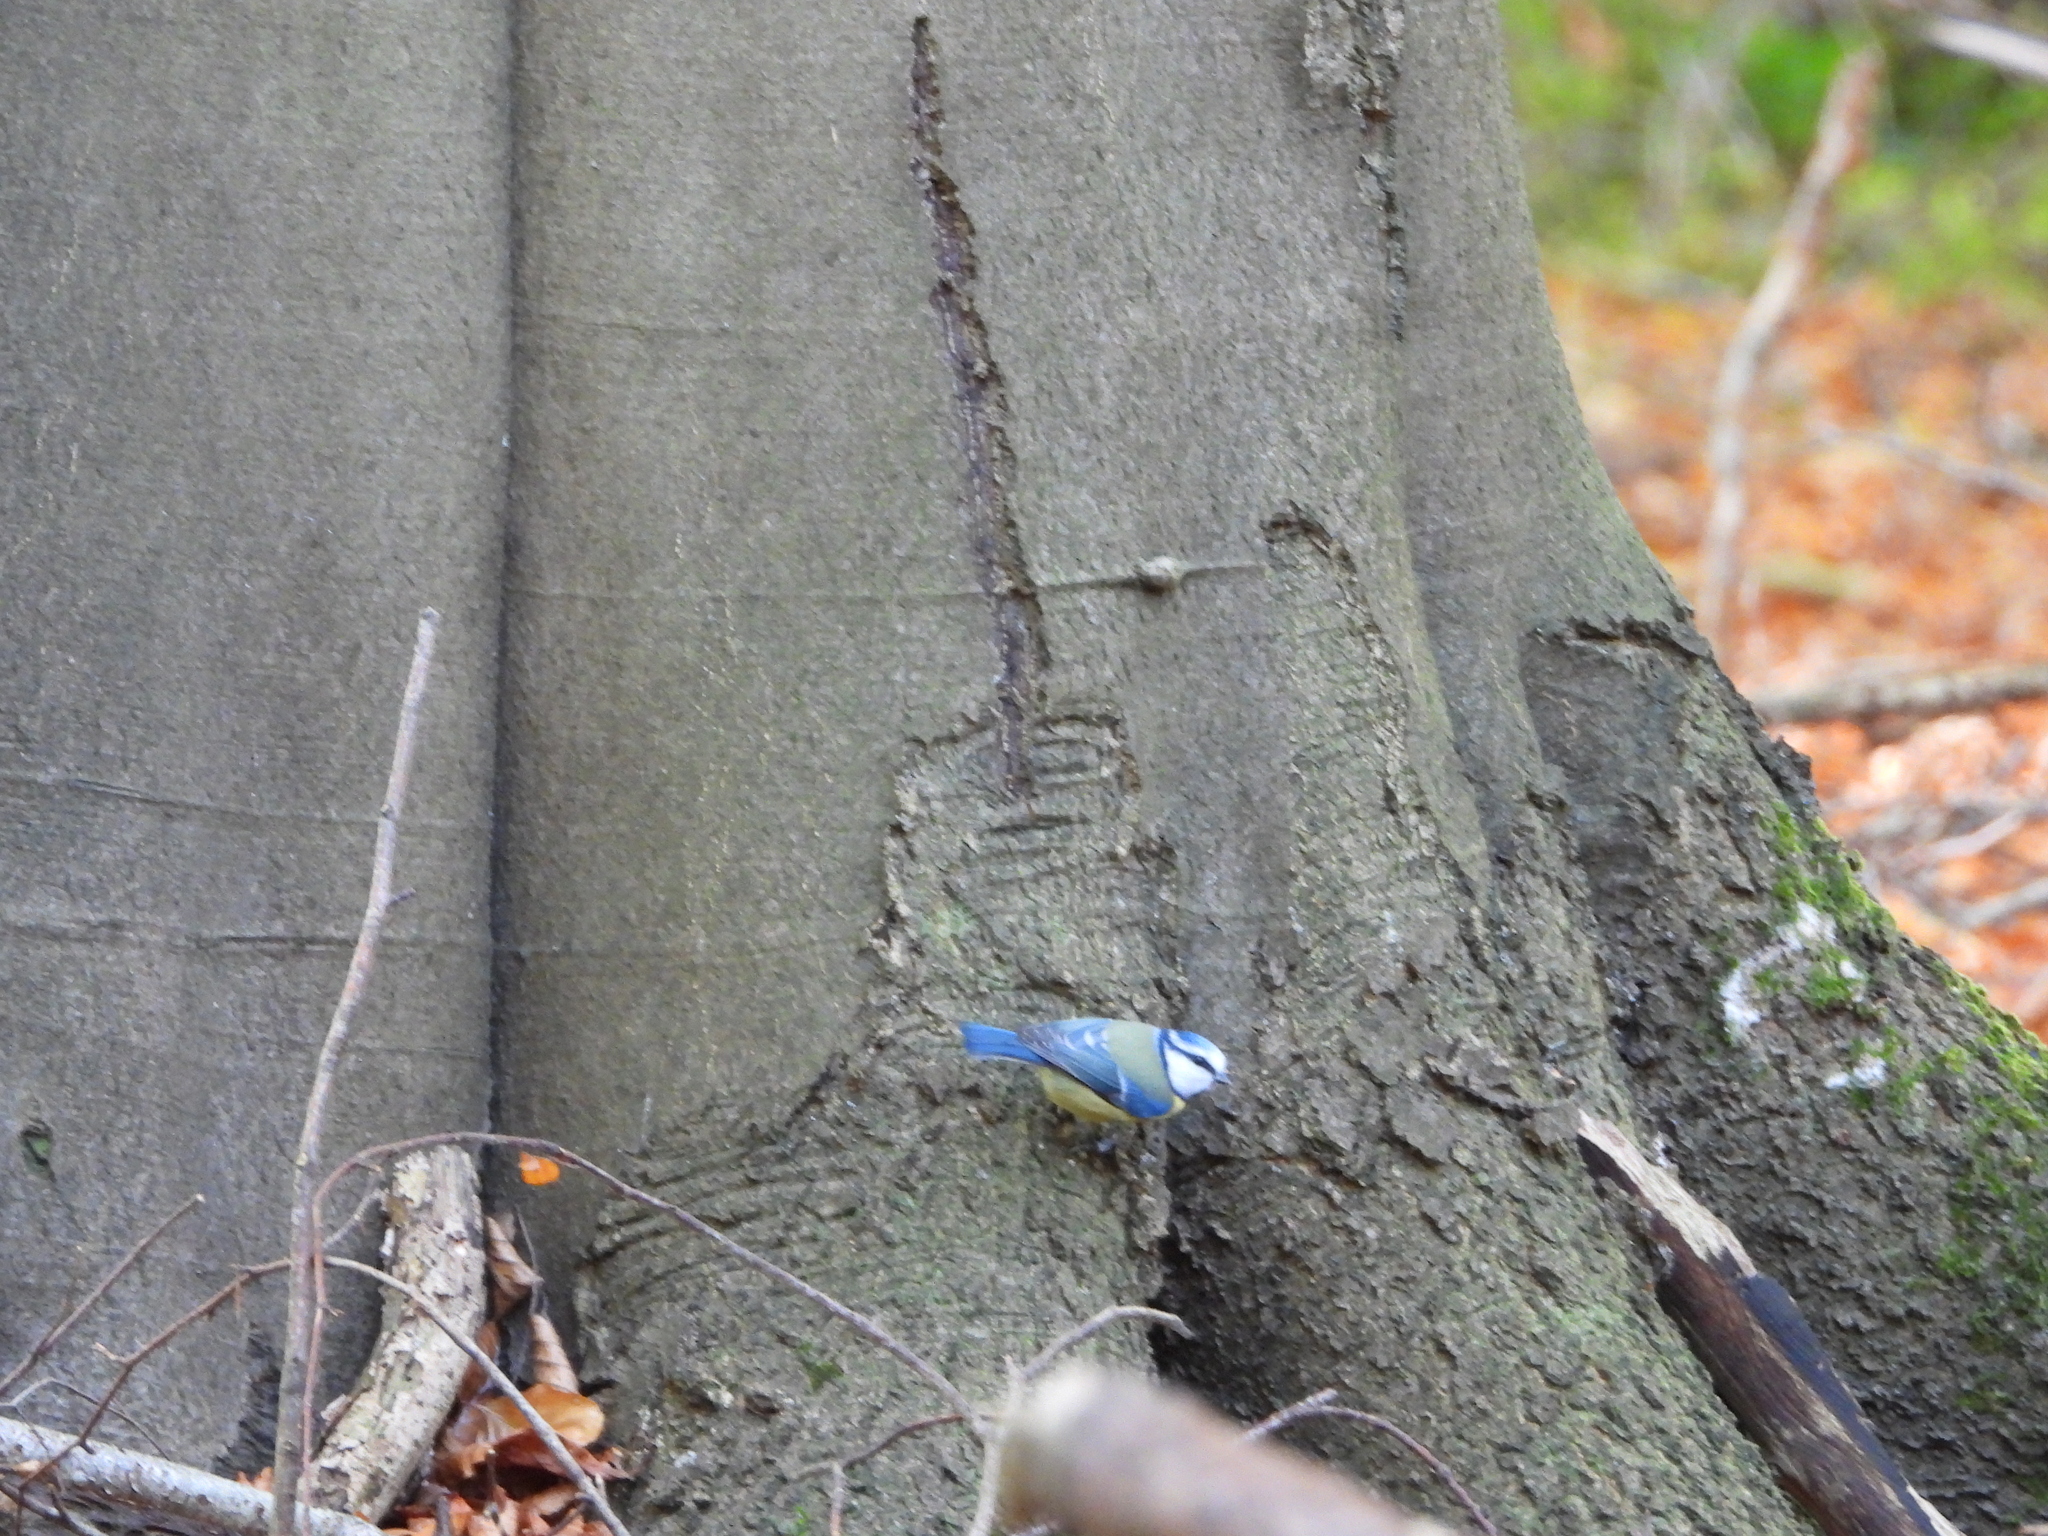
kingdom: Animalia
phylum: Chordata
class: Aves
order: Passeriformes
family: Paridae
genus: Cyanistes
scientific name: Cyanistes caeruleus
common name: Eurasian blue tit
